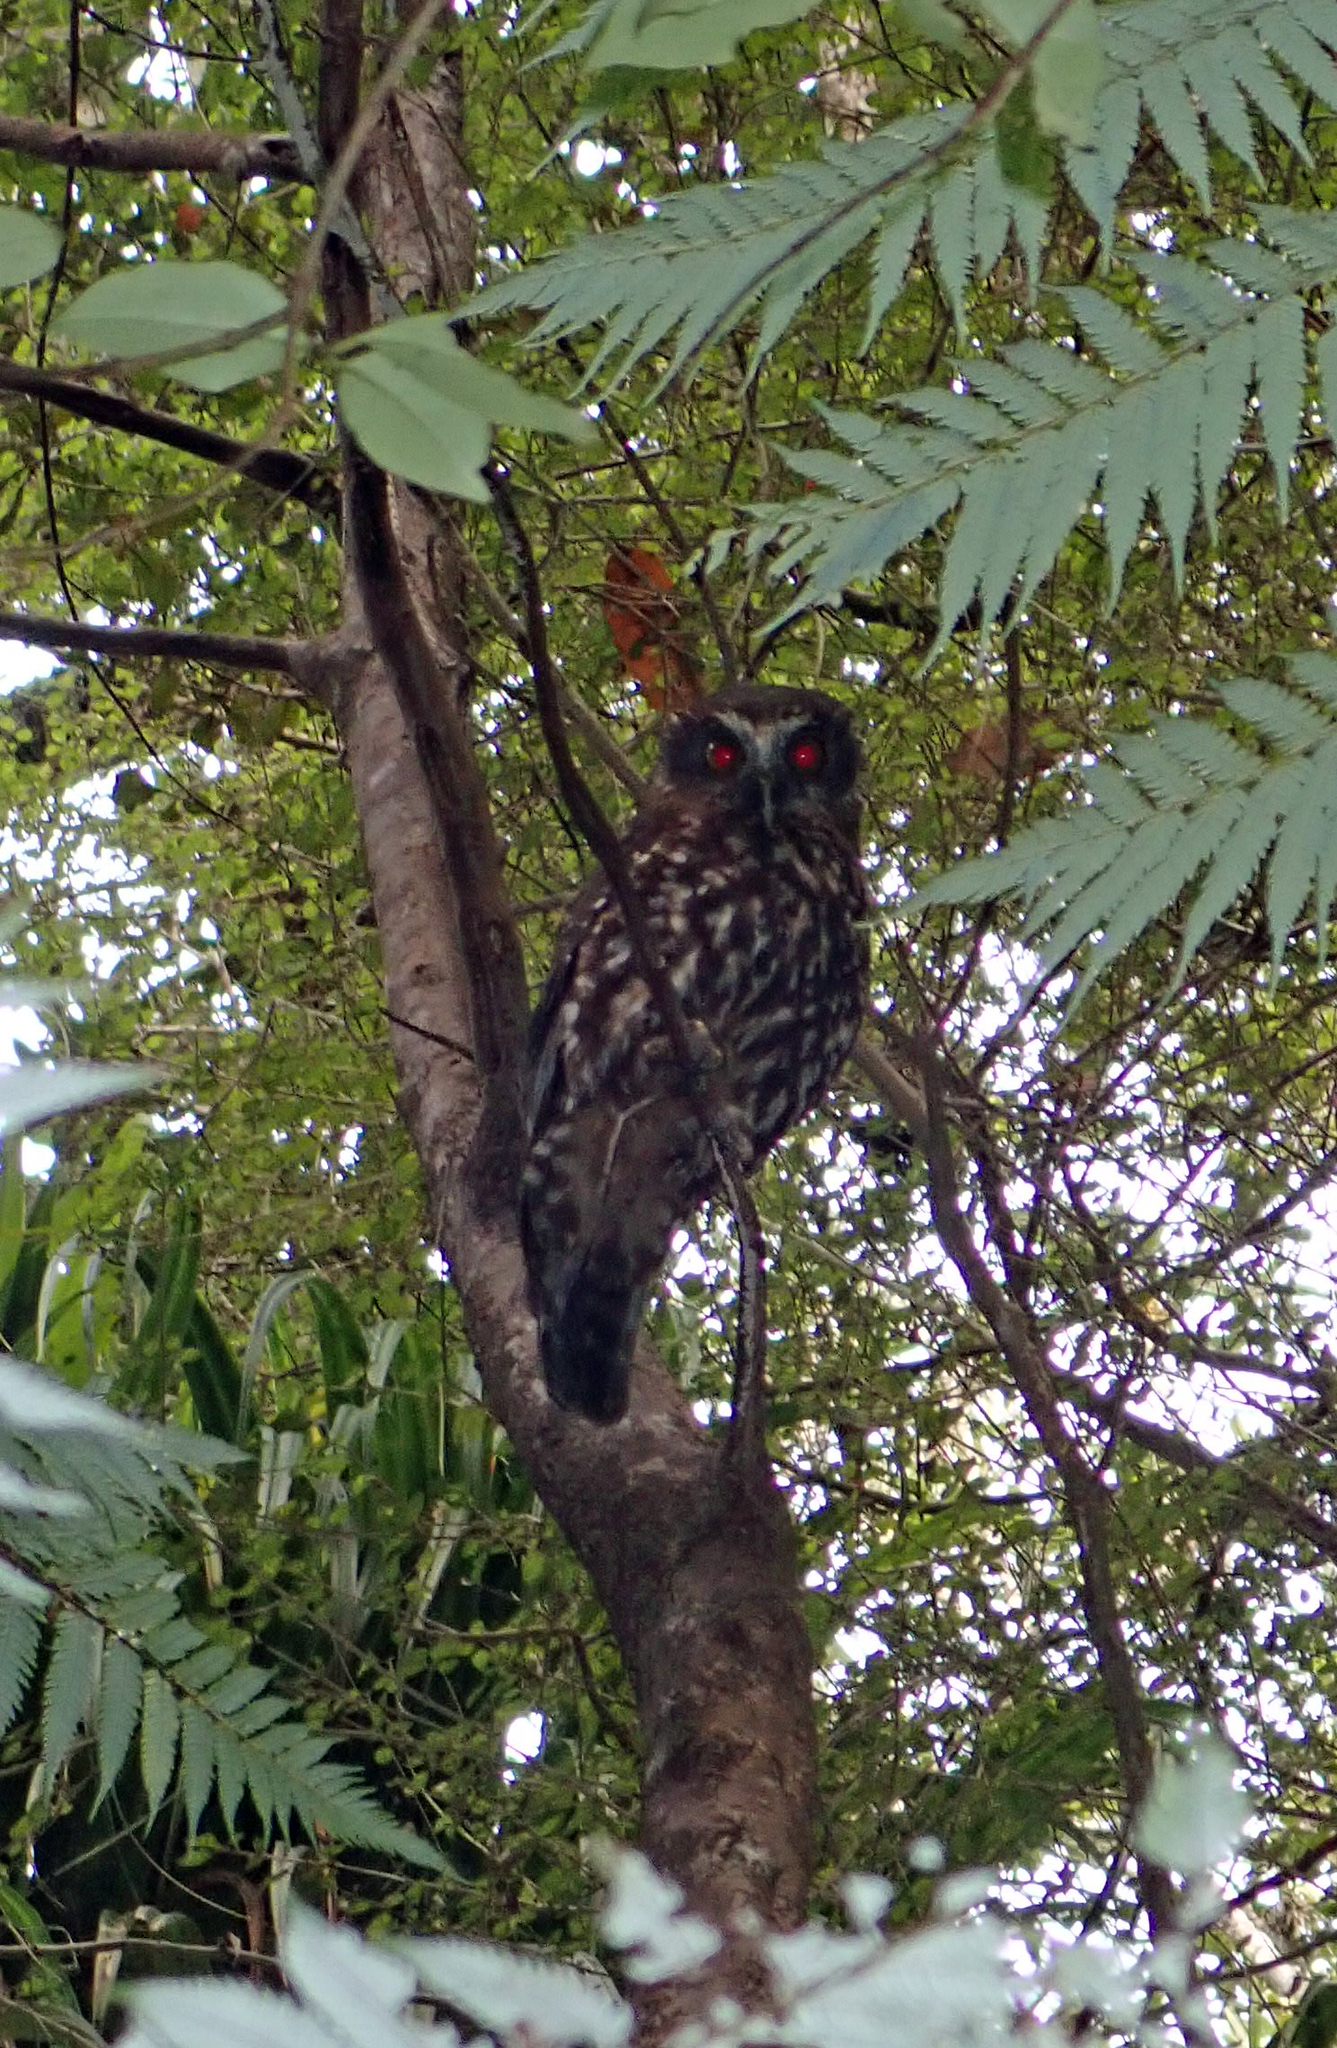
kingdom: Animalia
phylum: Chordata
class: Aves
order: Strigiformes
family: Strigidae
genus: Ninox
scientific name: Ninox novaeseelandiae
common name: Morepork
